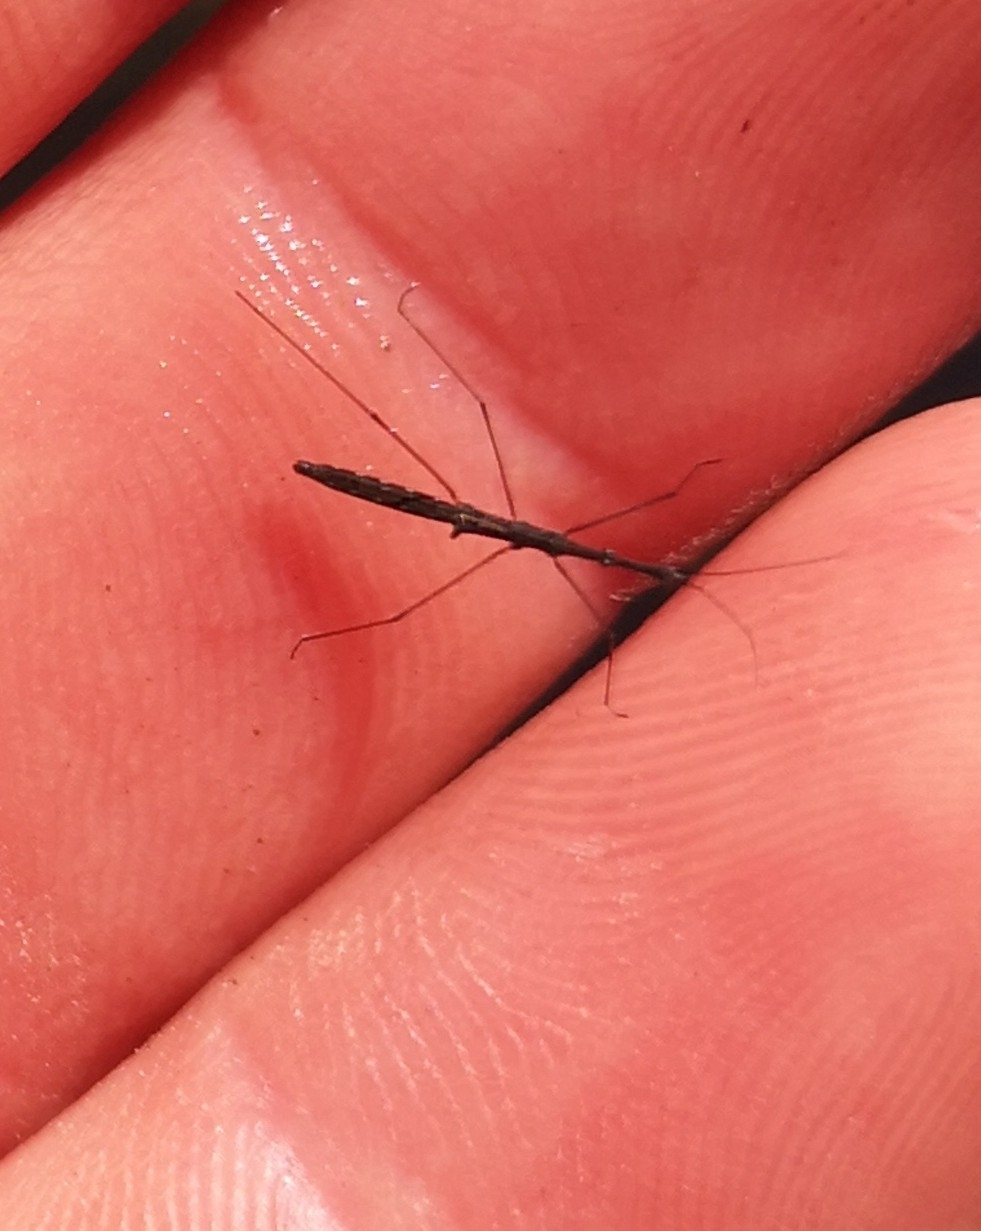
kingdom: Animalia
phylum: Arthropoda
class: Insecta
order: Hemiptera
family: Hydrometridae
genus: Hydrometra
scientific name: Hydrometra stagnorum
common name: Water measurer
